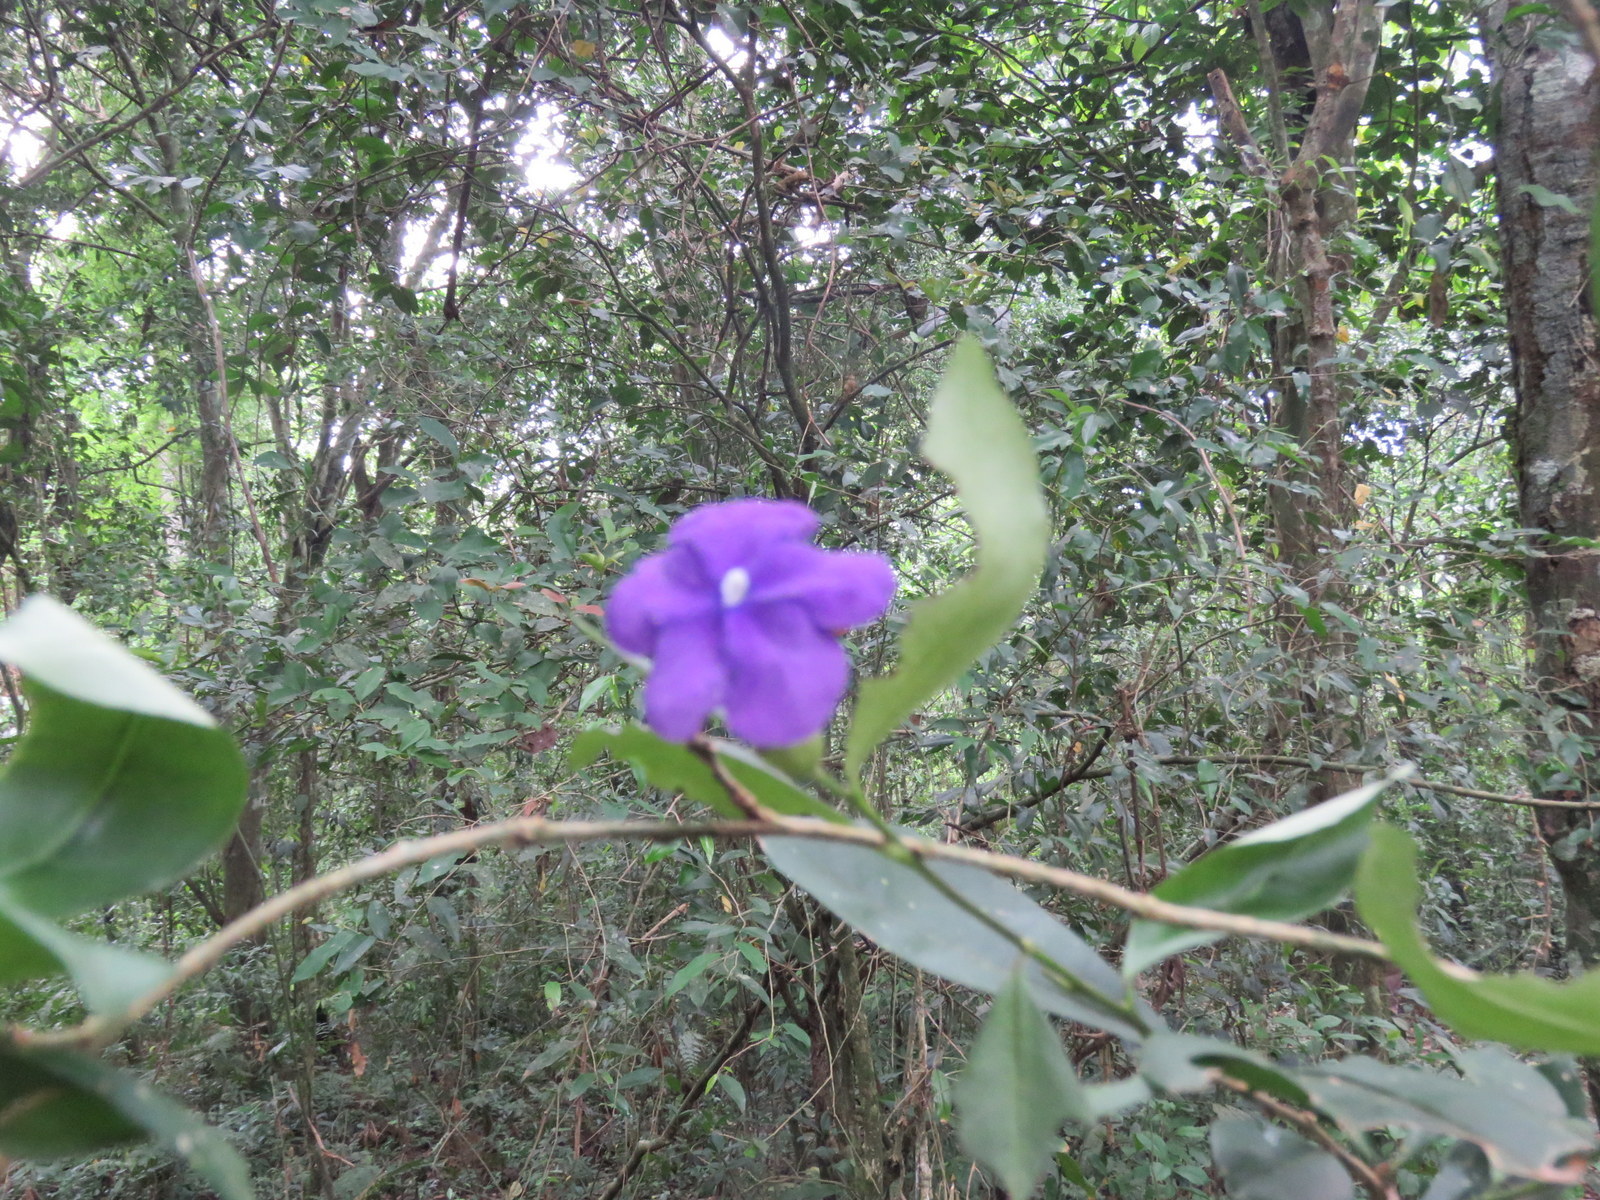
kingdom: Plantae
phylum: Tracheophyta
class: Magnoliopsida
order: Solanales
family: Solanaceae
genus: Brunfelsia
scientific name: Brunfelsia australis
